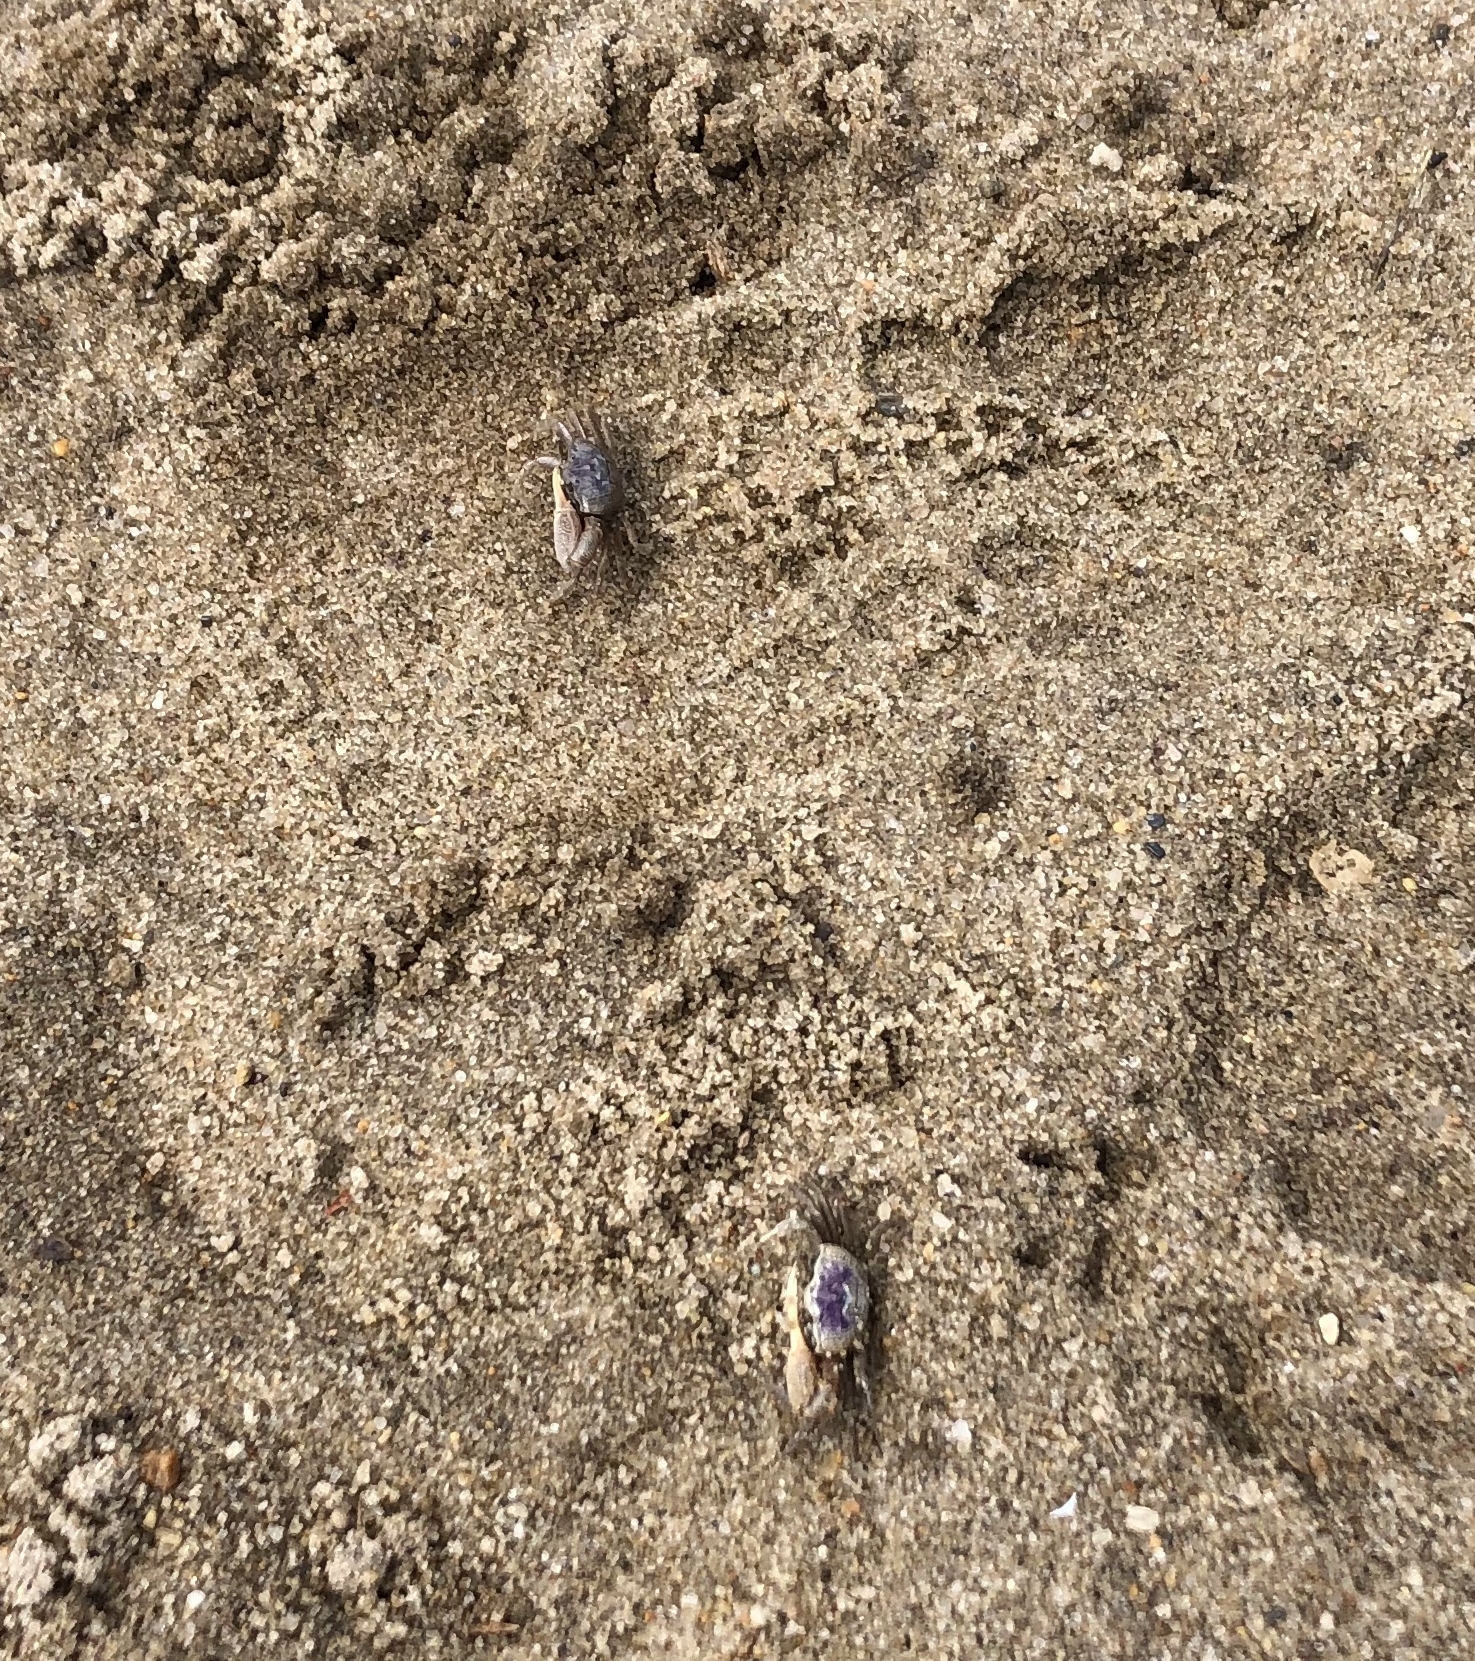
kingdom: Animalia
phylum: Arthropoda
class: Malacostraca
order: Decapoda
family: Ocypodidae
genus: Leptuca
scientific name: Leptuca pugilator
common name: Atlantic sand fiddler crab
